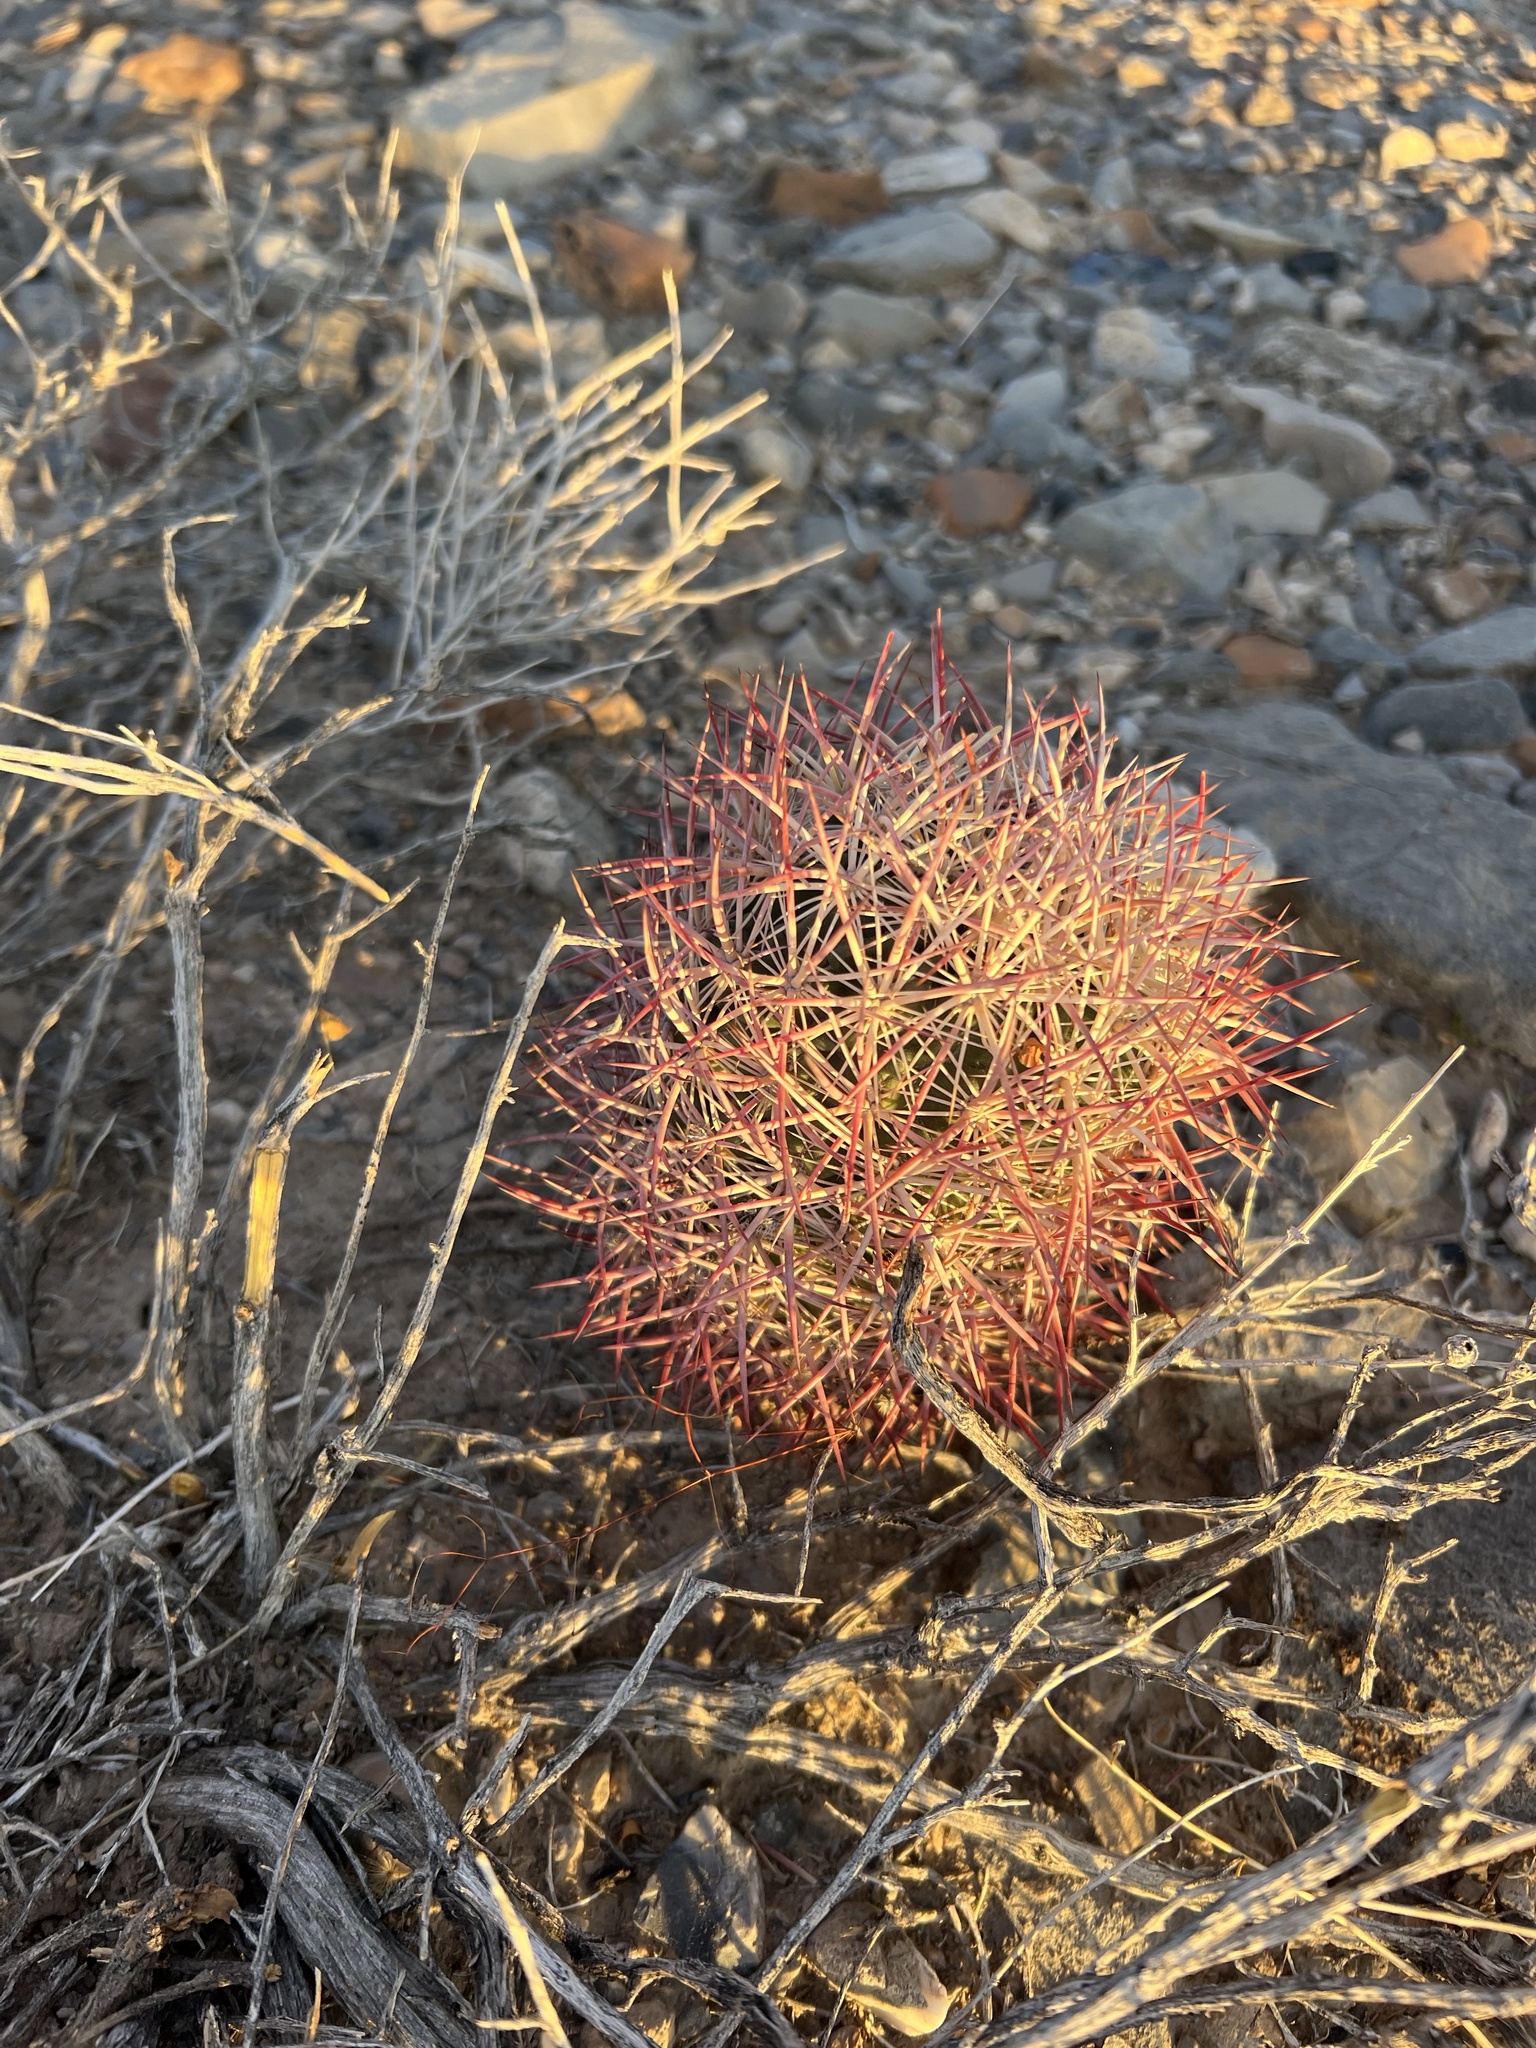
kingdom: Plantae
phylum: Tracheophyta
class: Magnoliopsida
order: Caryophyllales
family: Cactaceae
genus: Sclerocactus
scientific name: Sclerocactus johnsonii
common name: Eight-spine fishhook cactus
